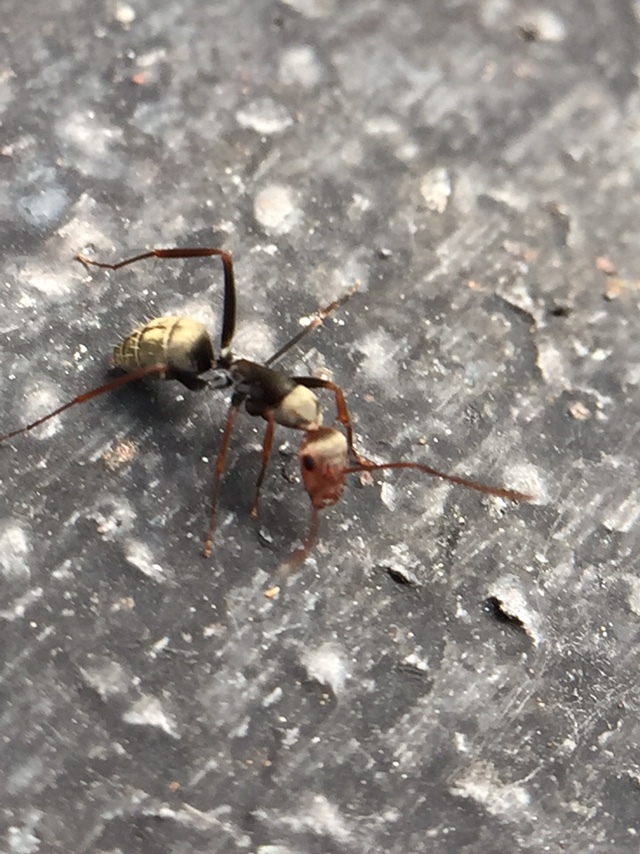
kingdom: Animalia
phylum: Arthropoda
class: Insecta
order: Hymenoptera
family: Formicidae
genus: Camponotus
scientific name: Camponotus rufoglaucus
